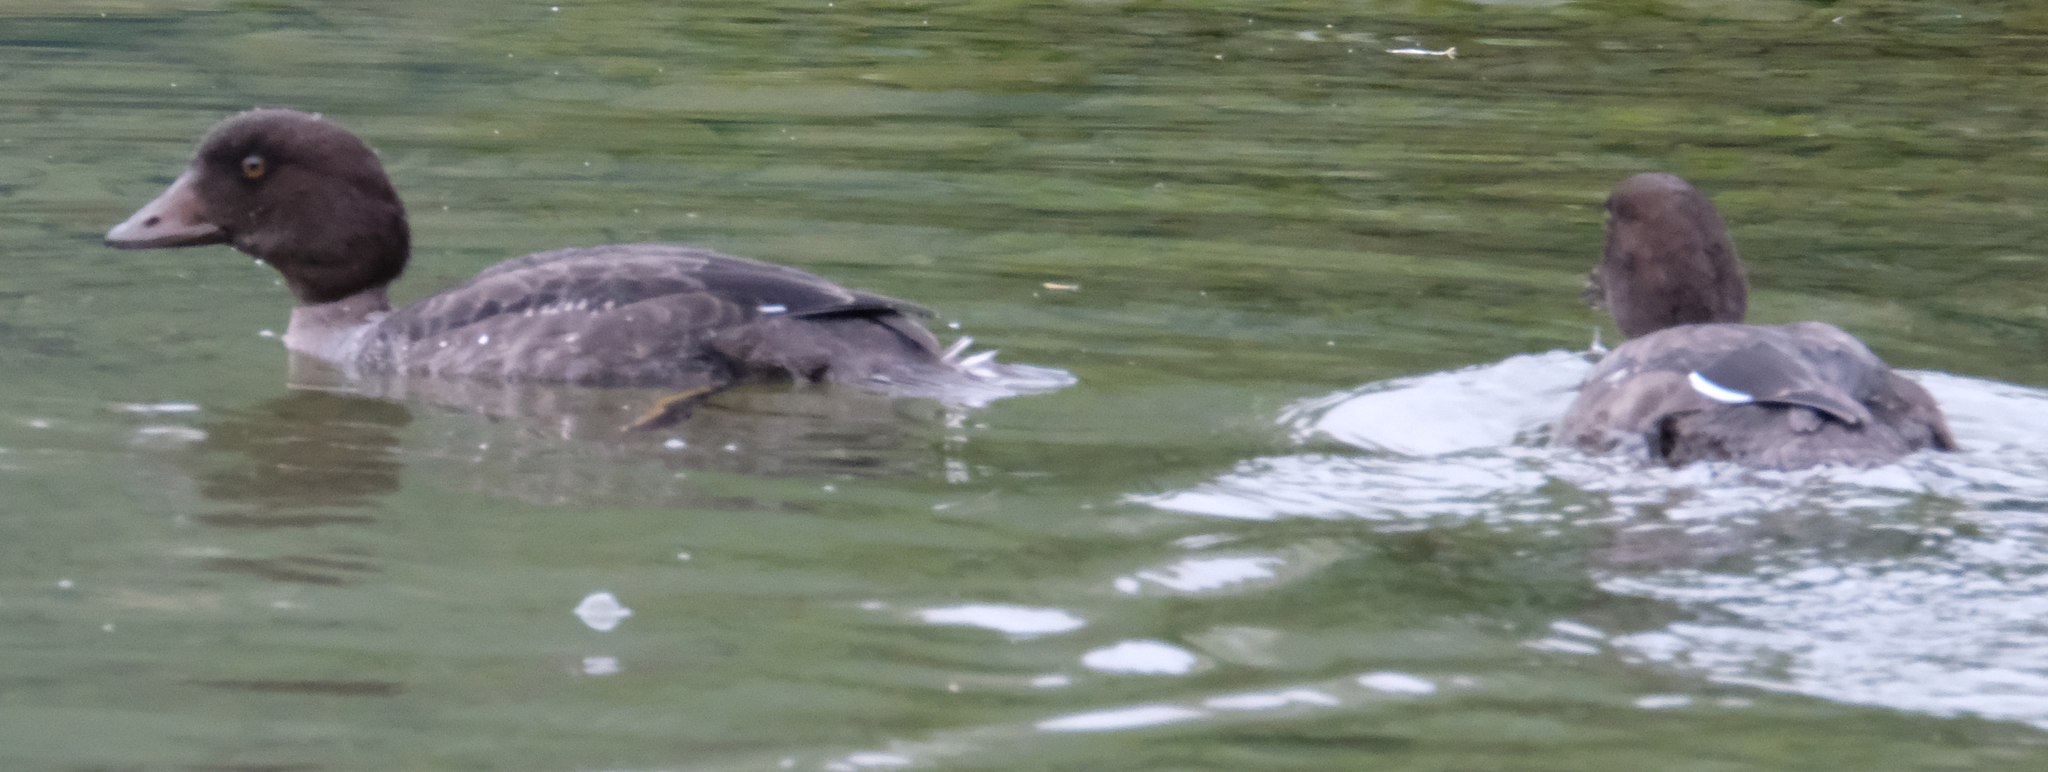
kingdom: Animalia
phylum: Chordata
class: Aves
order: Anseriformes
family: Anatidae
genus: Bucephala
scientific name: Bucephala islandica
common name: Barrow's goldeneye
